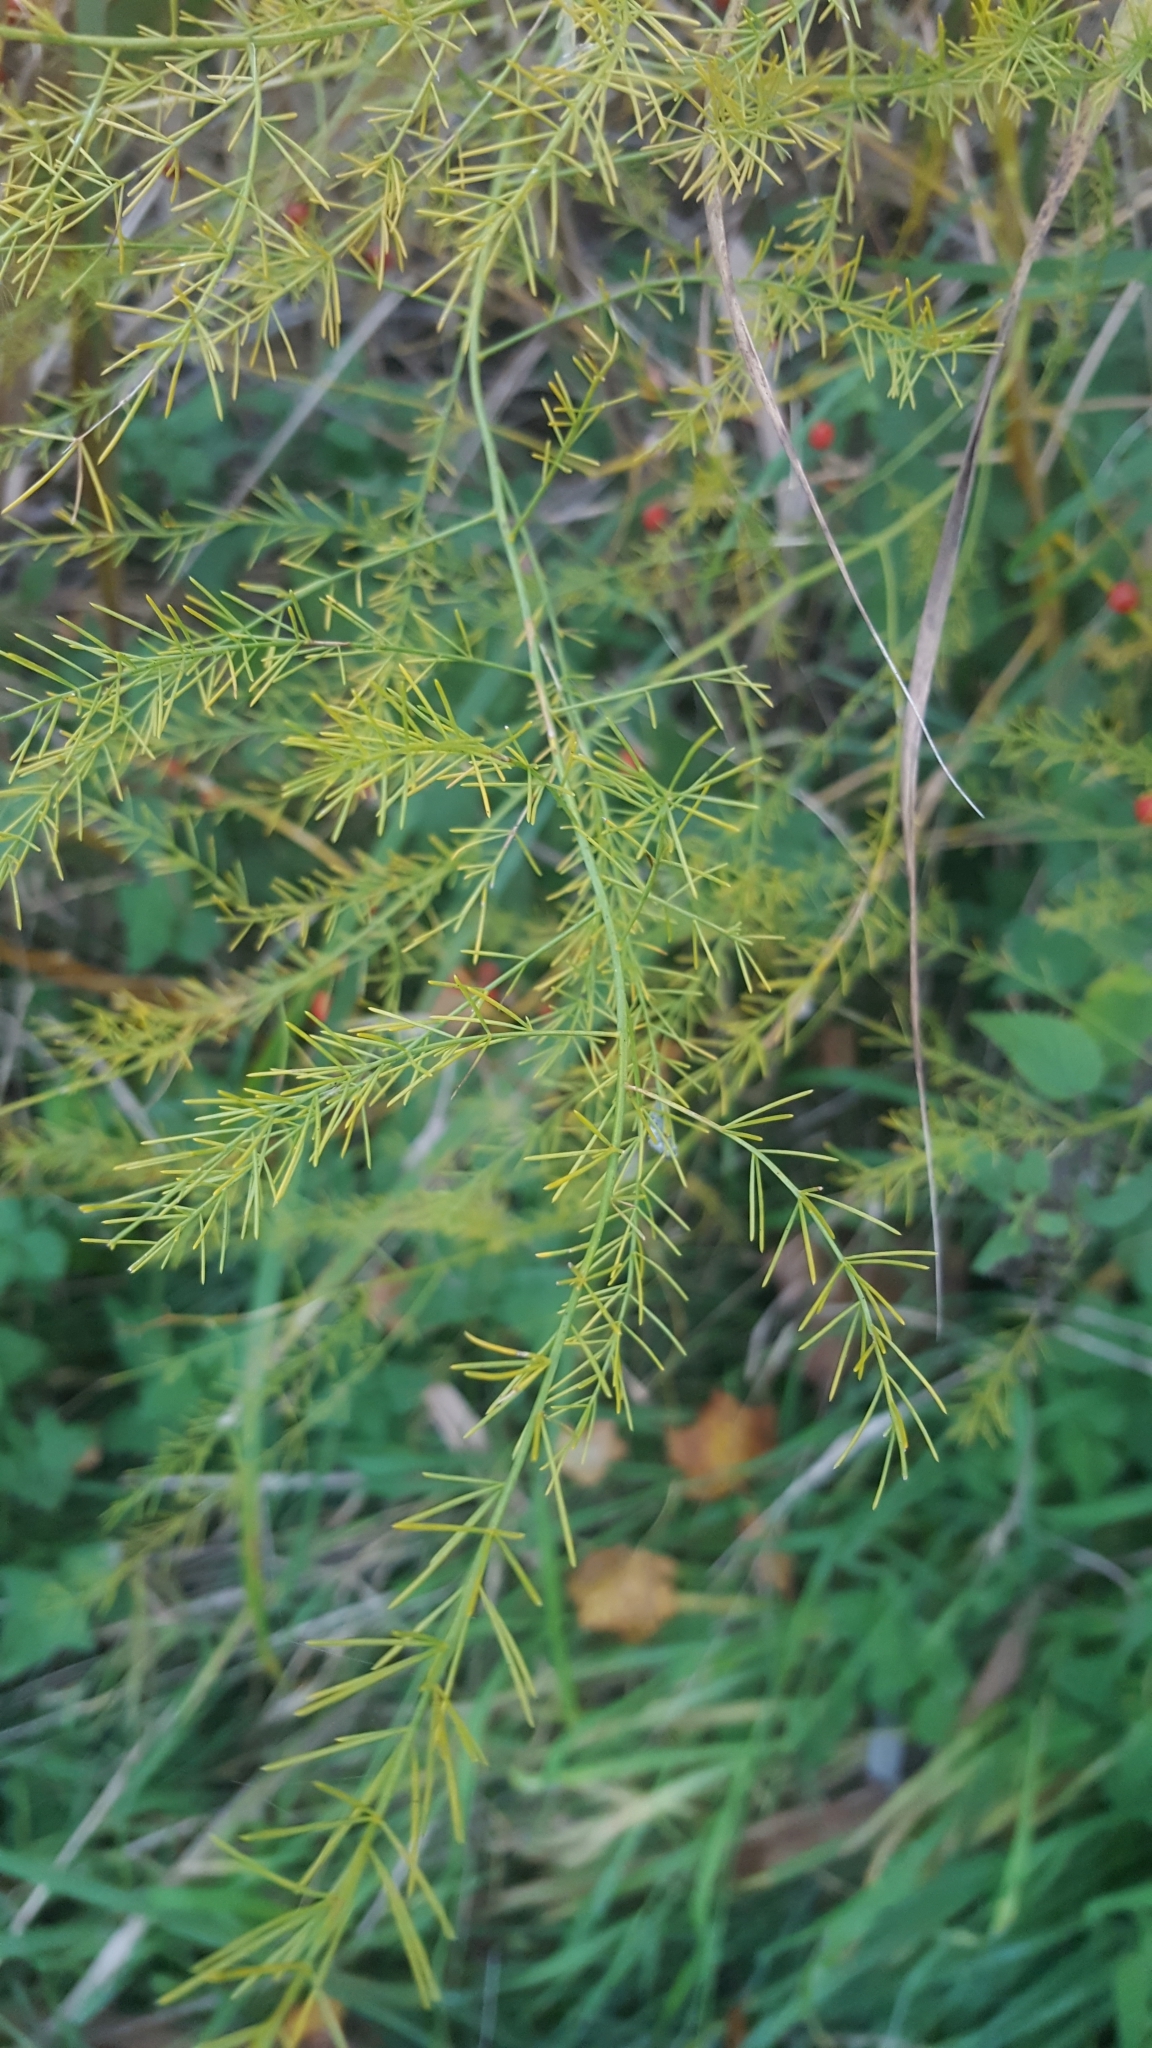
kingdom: Plantae
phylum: Tracheophyta
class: Liliopsida
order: Asparagales
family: Asparagaceae
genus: Asparagus
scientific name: Asparagus officinalis
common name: Garden asparagus
